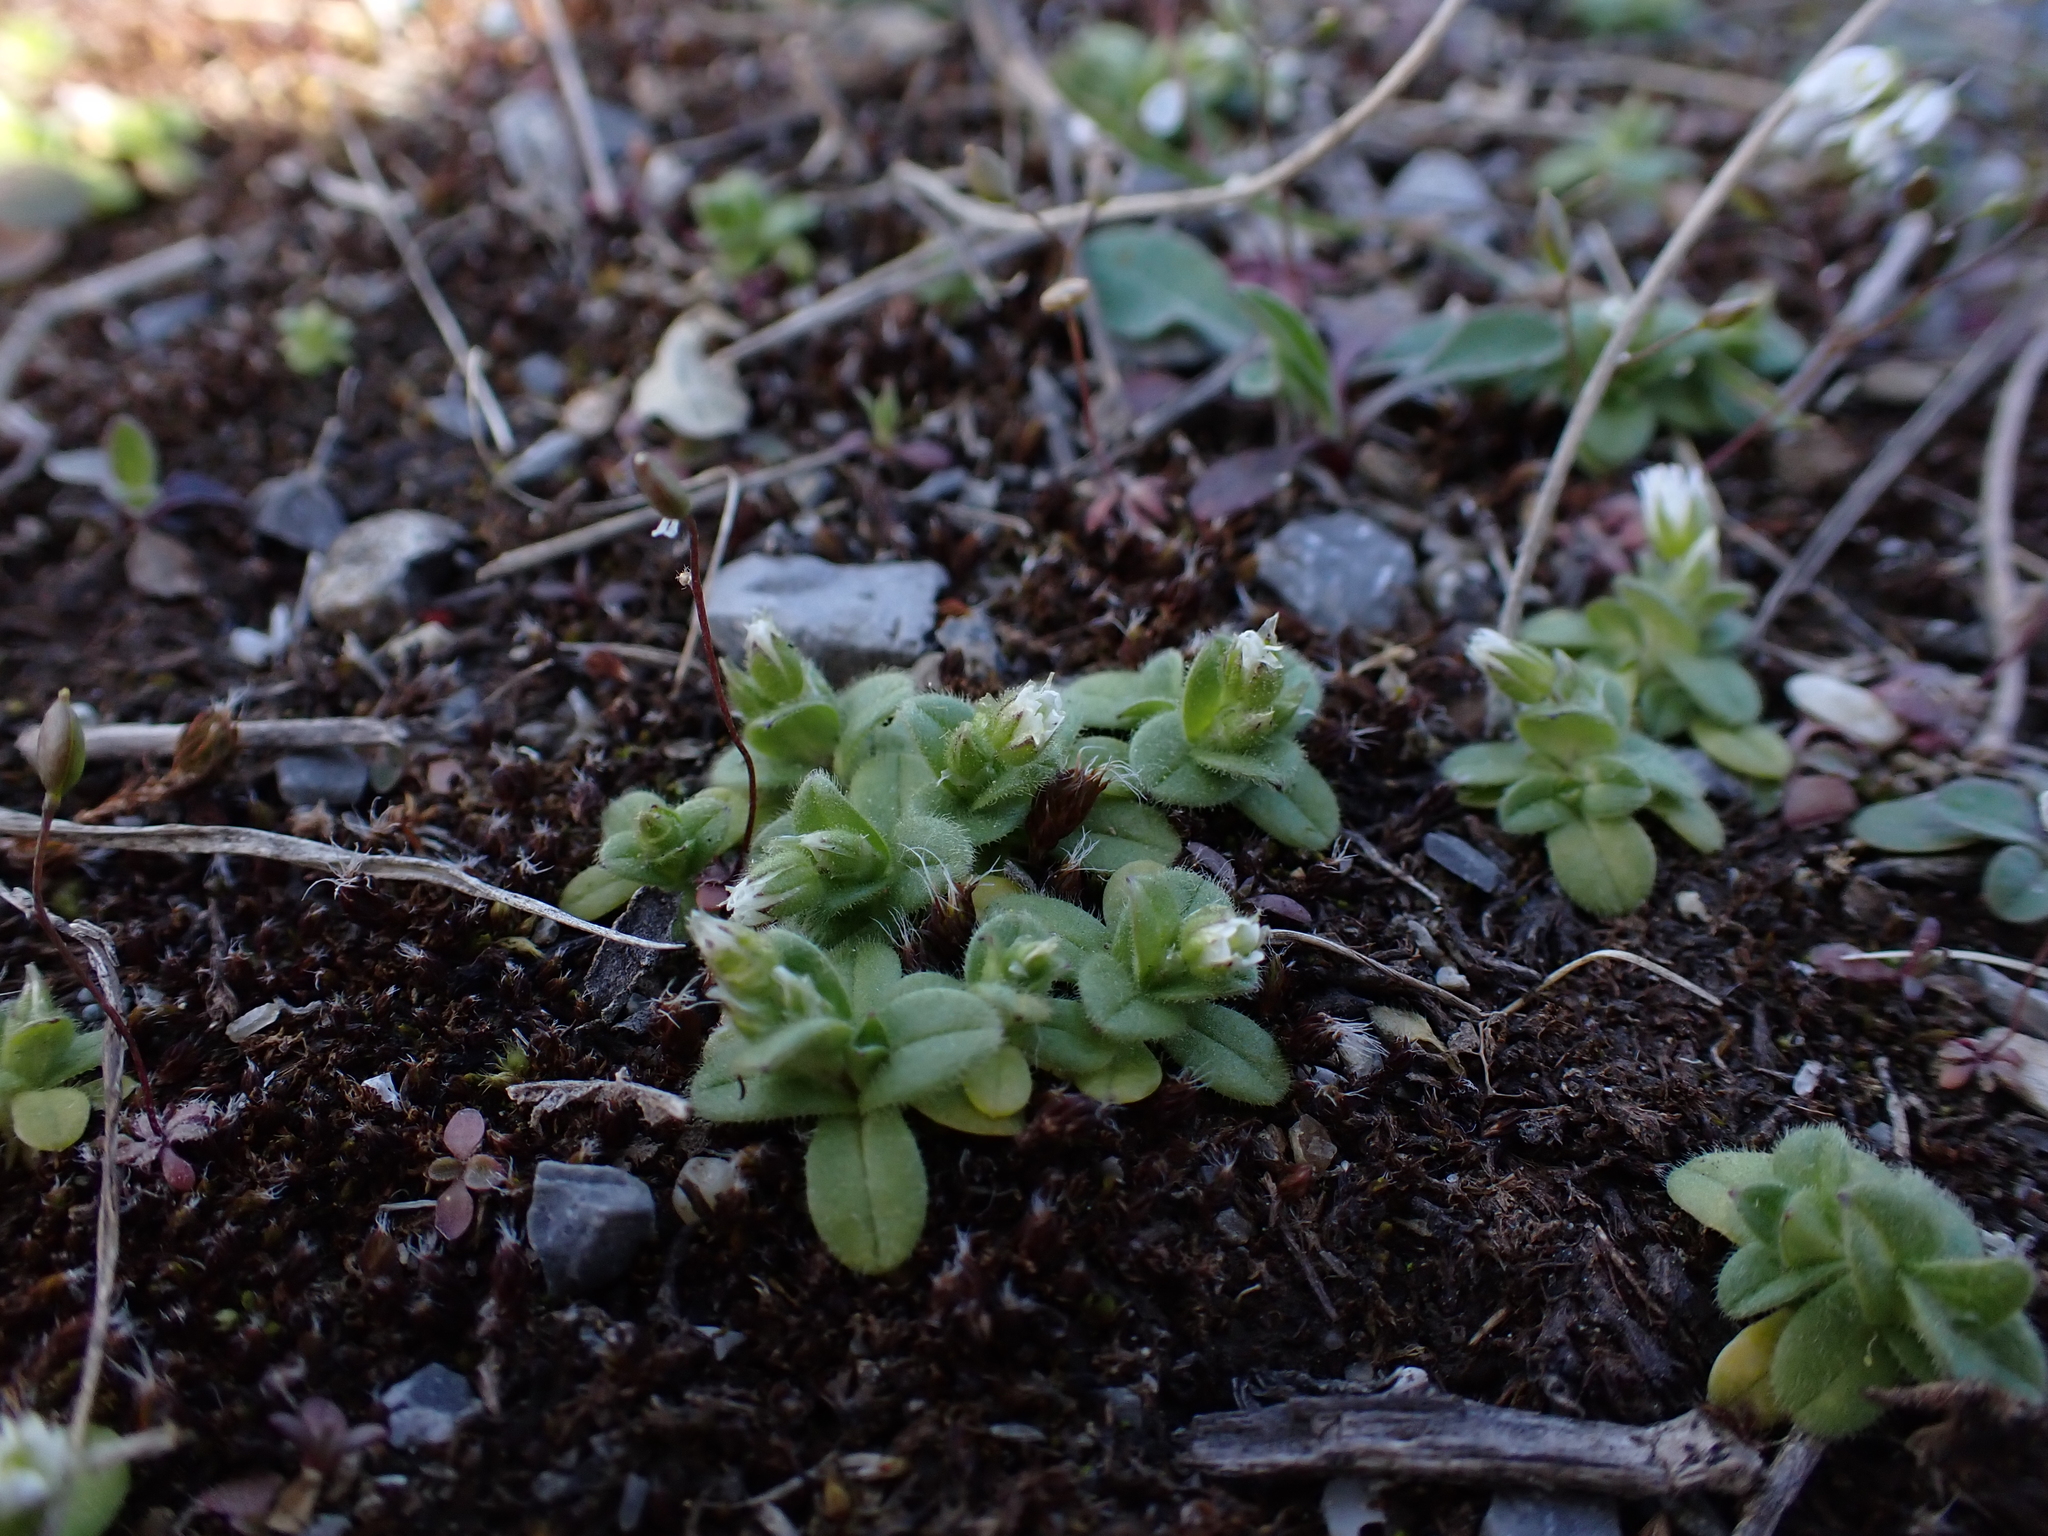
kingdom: Plantae
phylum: Tracheophyta
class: Magnoliopsida
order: Caryophyllales
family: Caryophyllaceae
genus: Cerastium
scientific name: Cerastium semidecandrum
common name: Little mouse-ear
